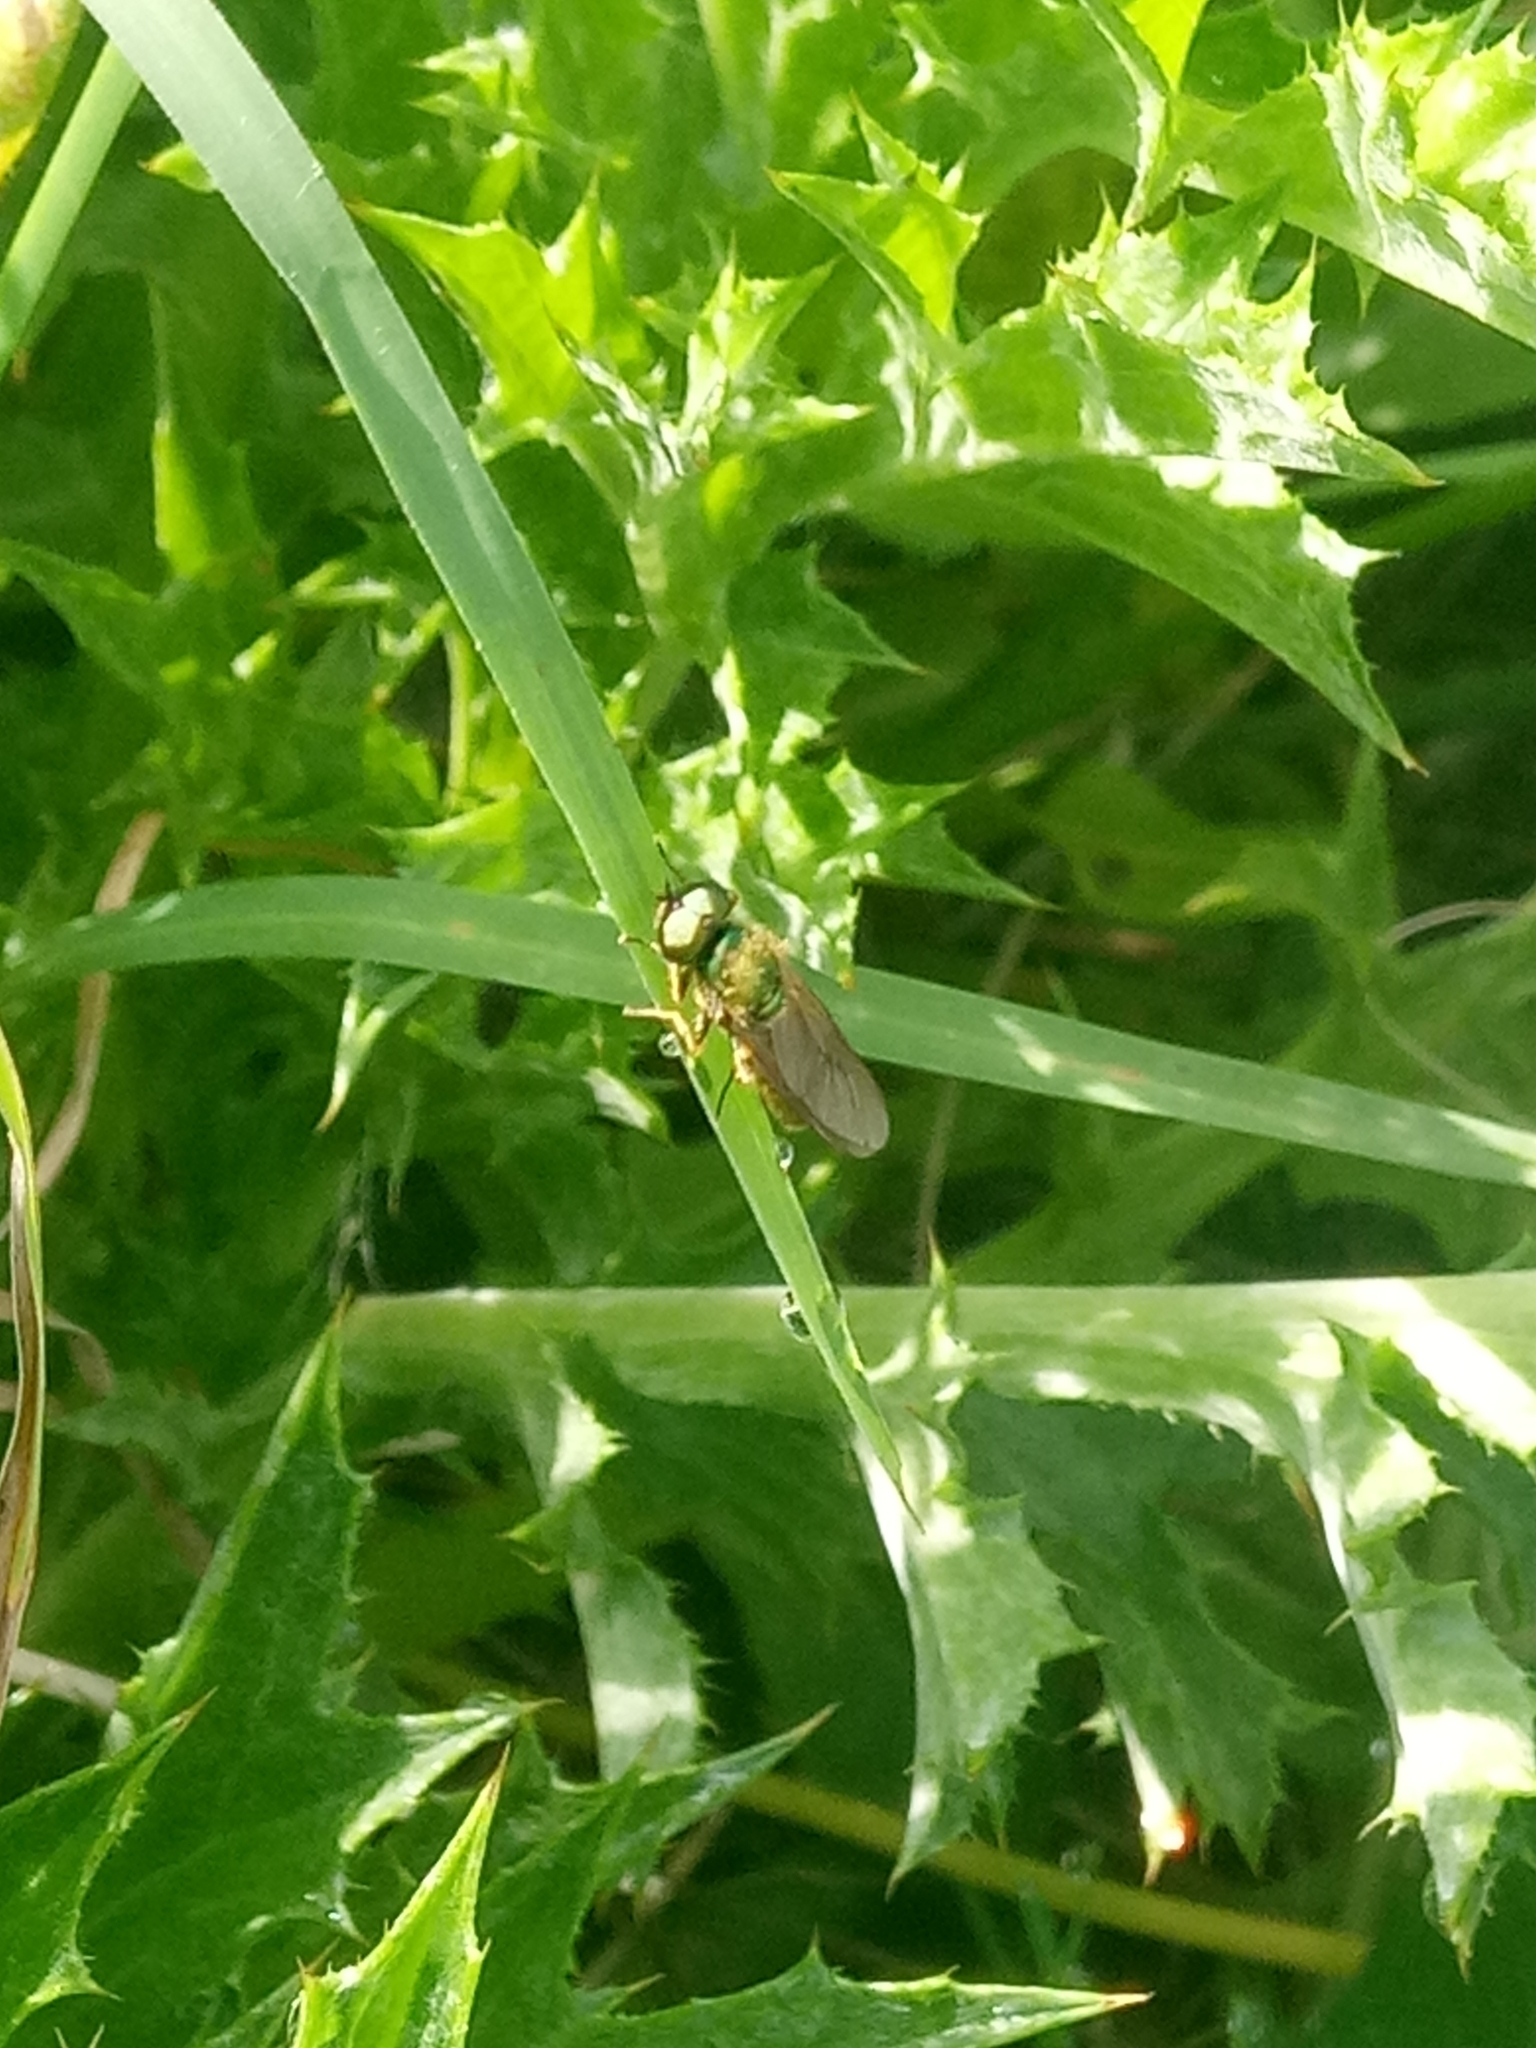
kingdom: Animalia
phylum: Arthropoda
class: Insecta
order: Diptera
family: Stratiomyidae
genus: Chloromyia
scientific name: Chloromyia formosa
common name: Soldier fly
